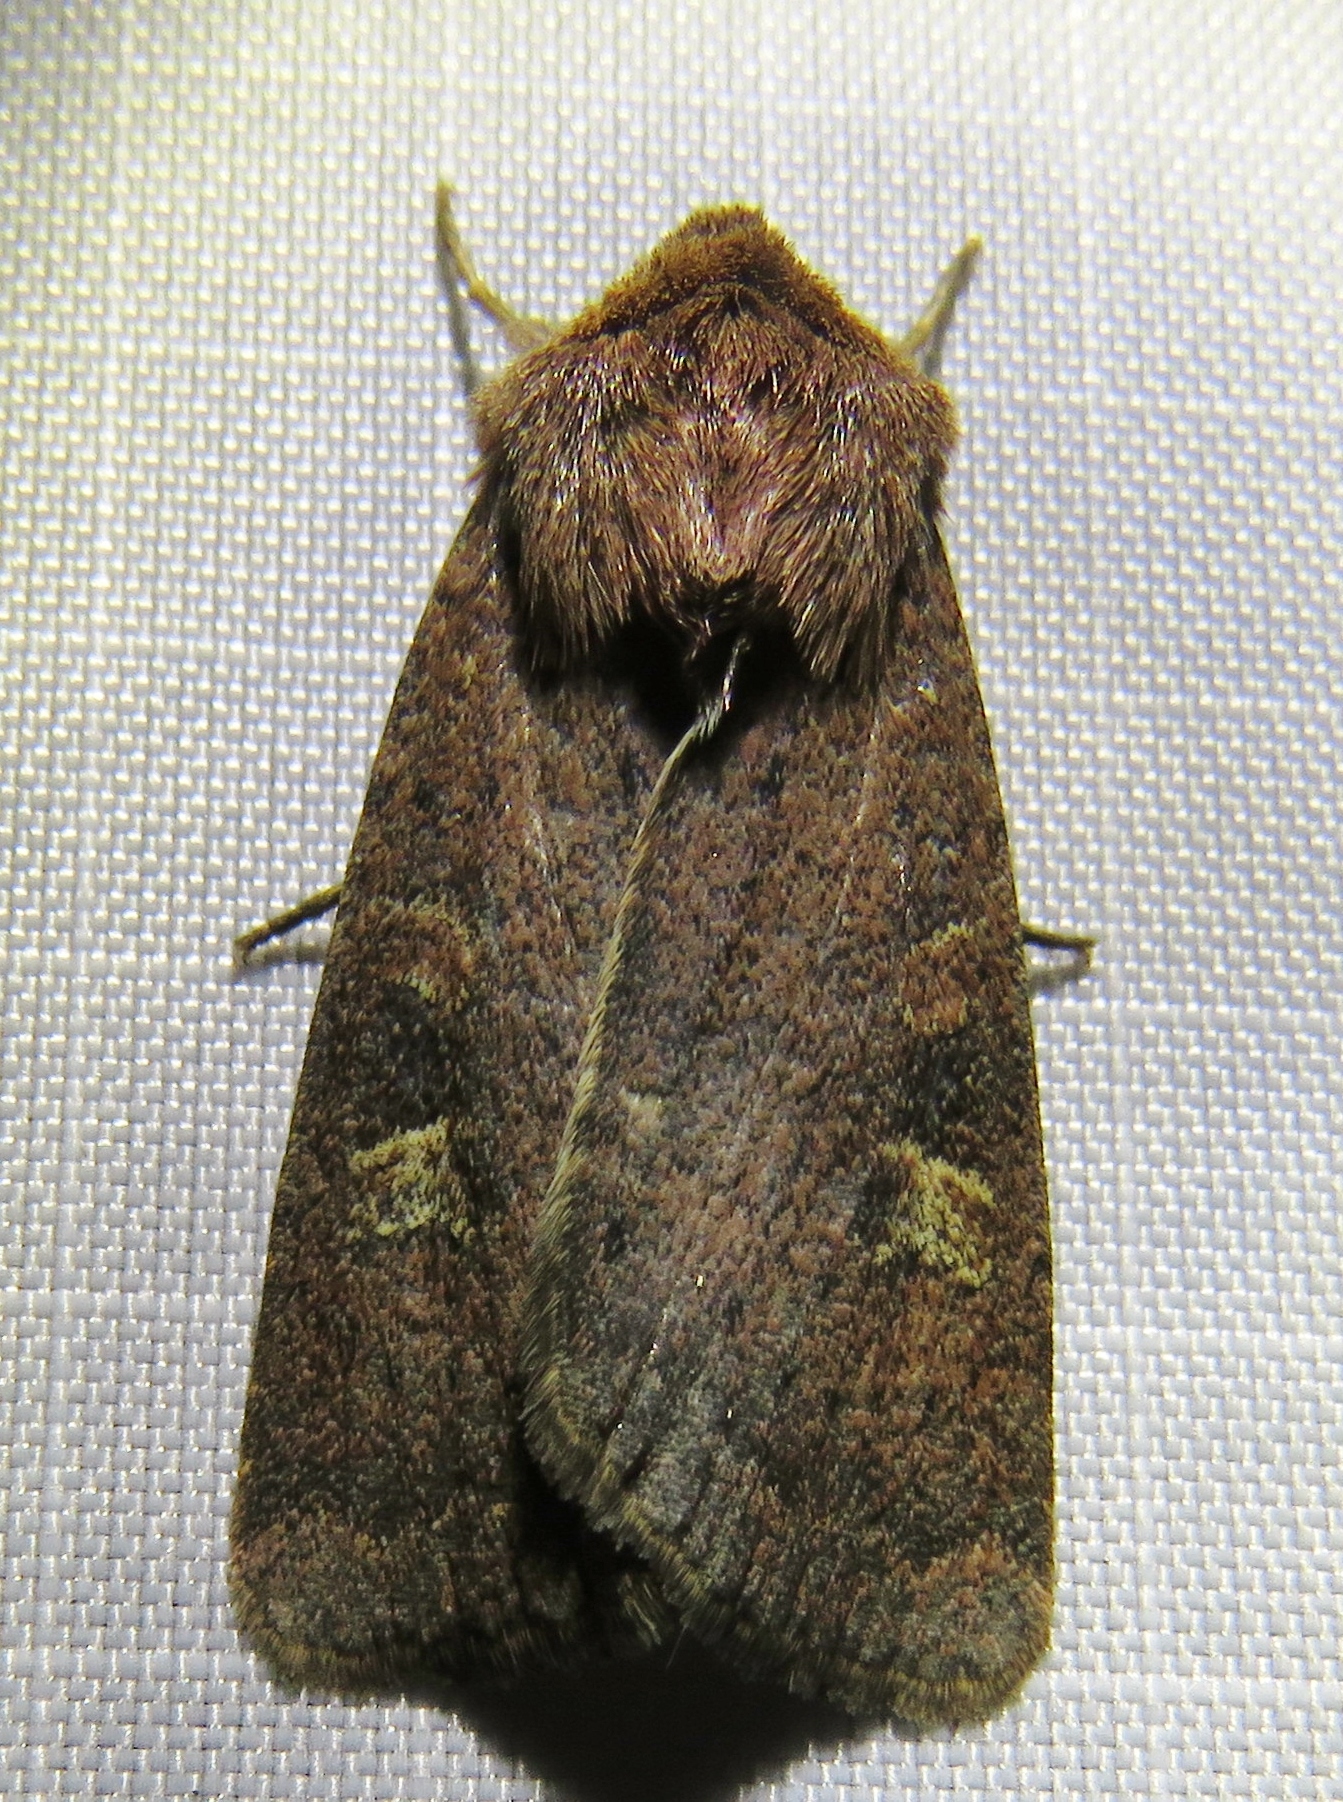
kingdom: Animalia
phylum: Arthropoda
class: Insecta
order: Lepidoptera
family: Noctuidae
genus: Xestia
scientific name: Xestia xanthographa
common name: Square-spot rustic
